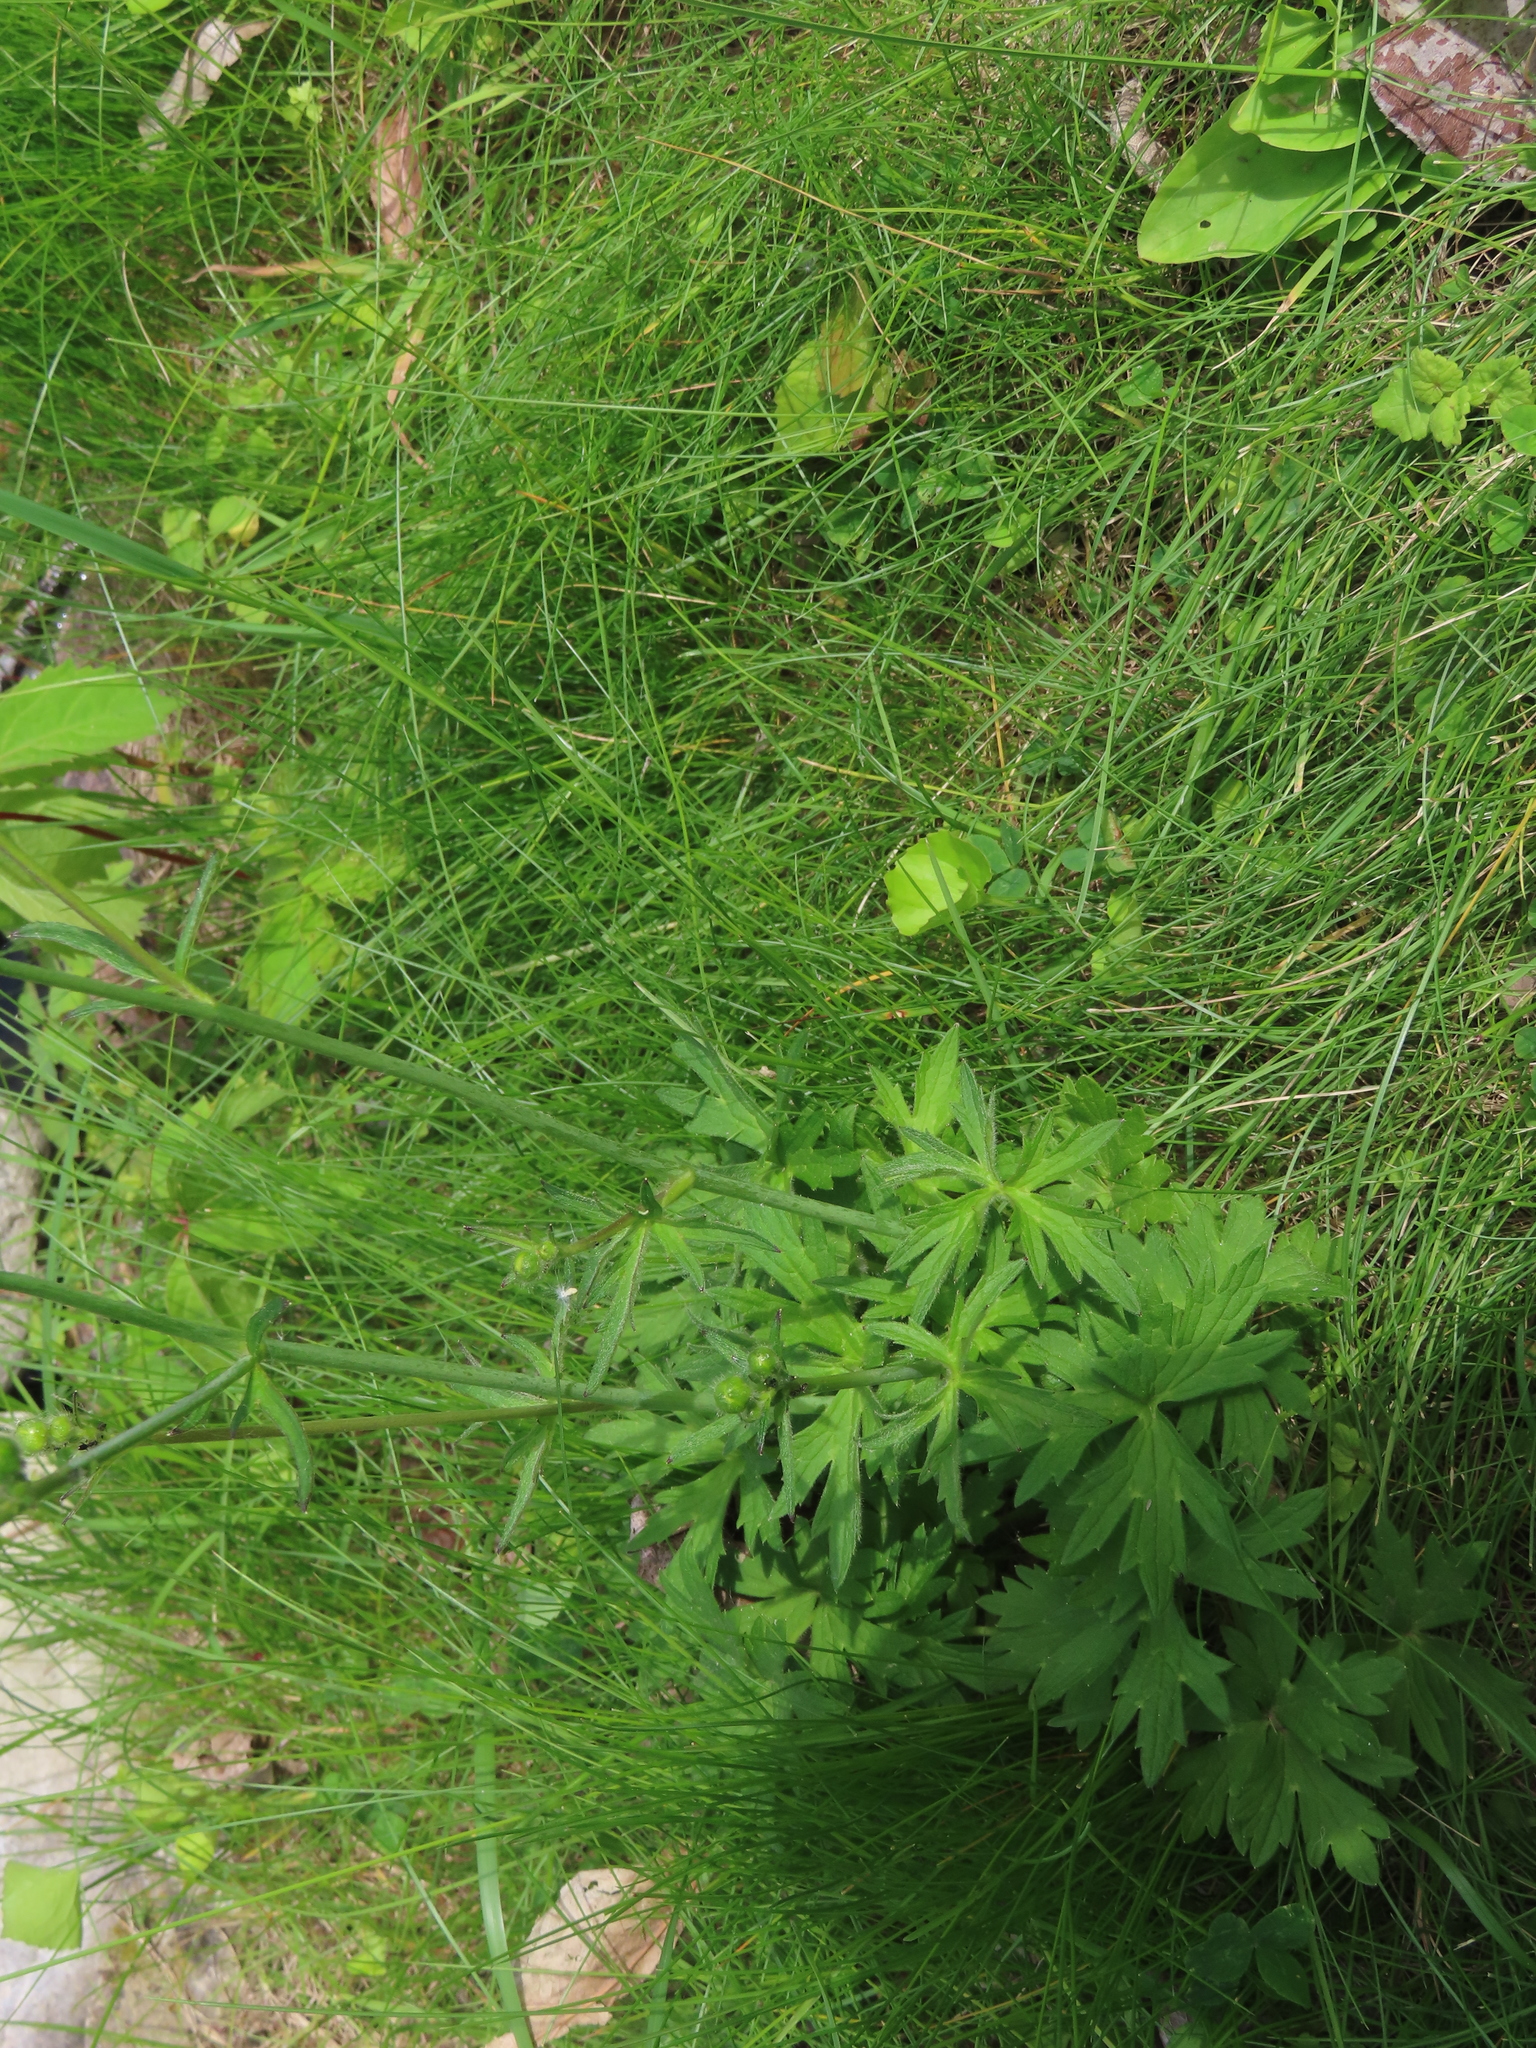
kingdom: Plantae
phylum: Tracheophyta
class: Magnoliopsida
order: Ranunculales
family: Ranunculaceae
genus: Ranunculus
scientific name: Ranunculus acris
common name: Meadow buttercup
